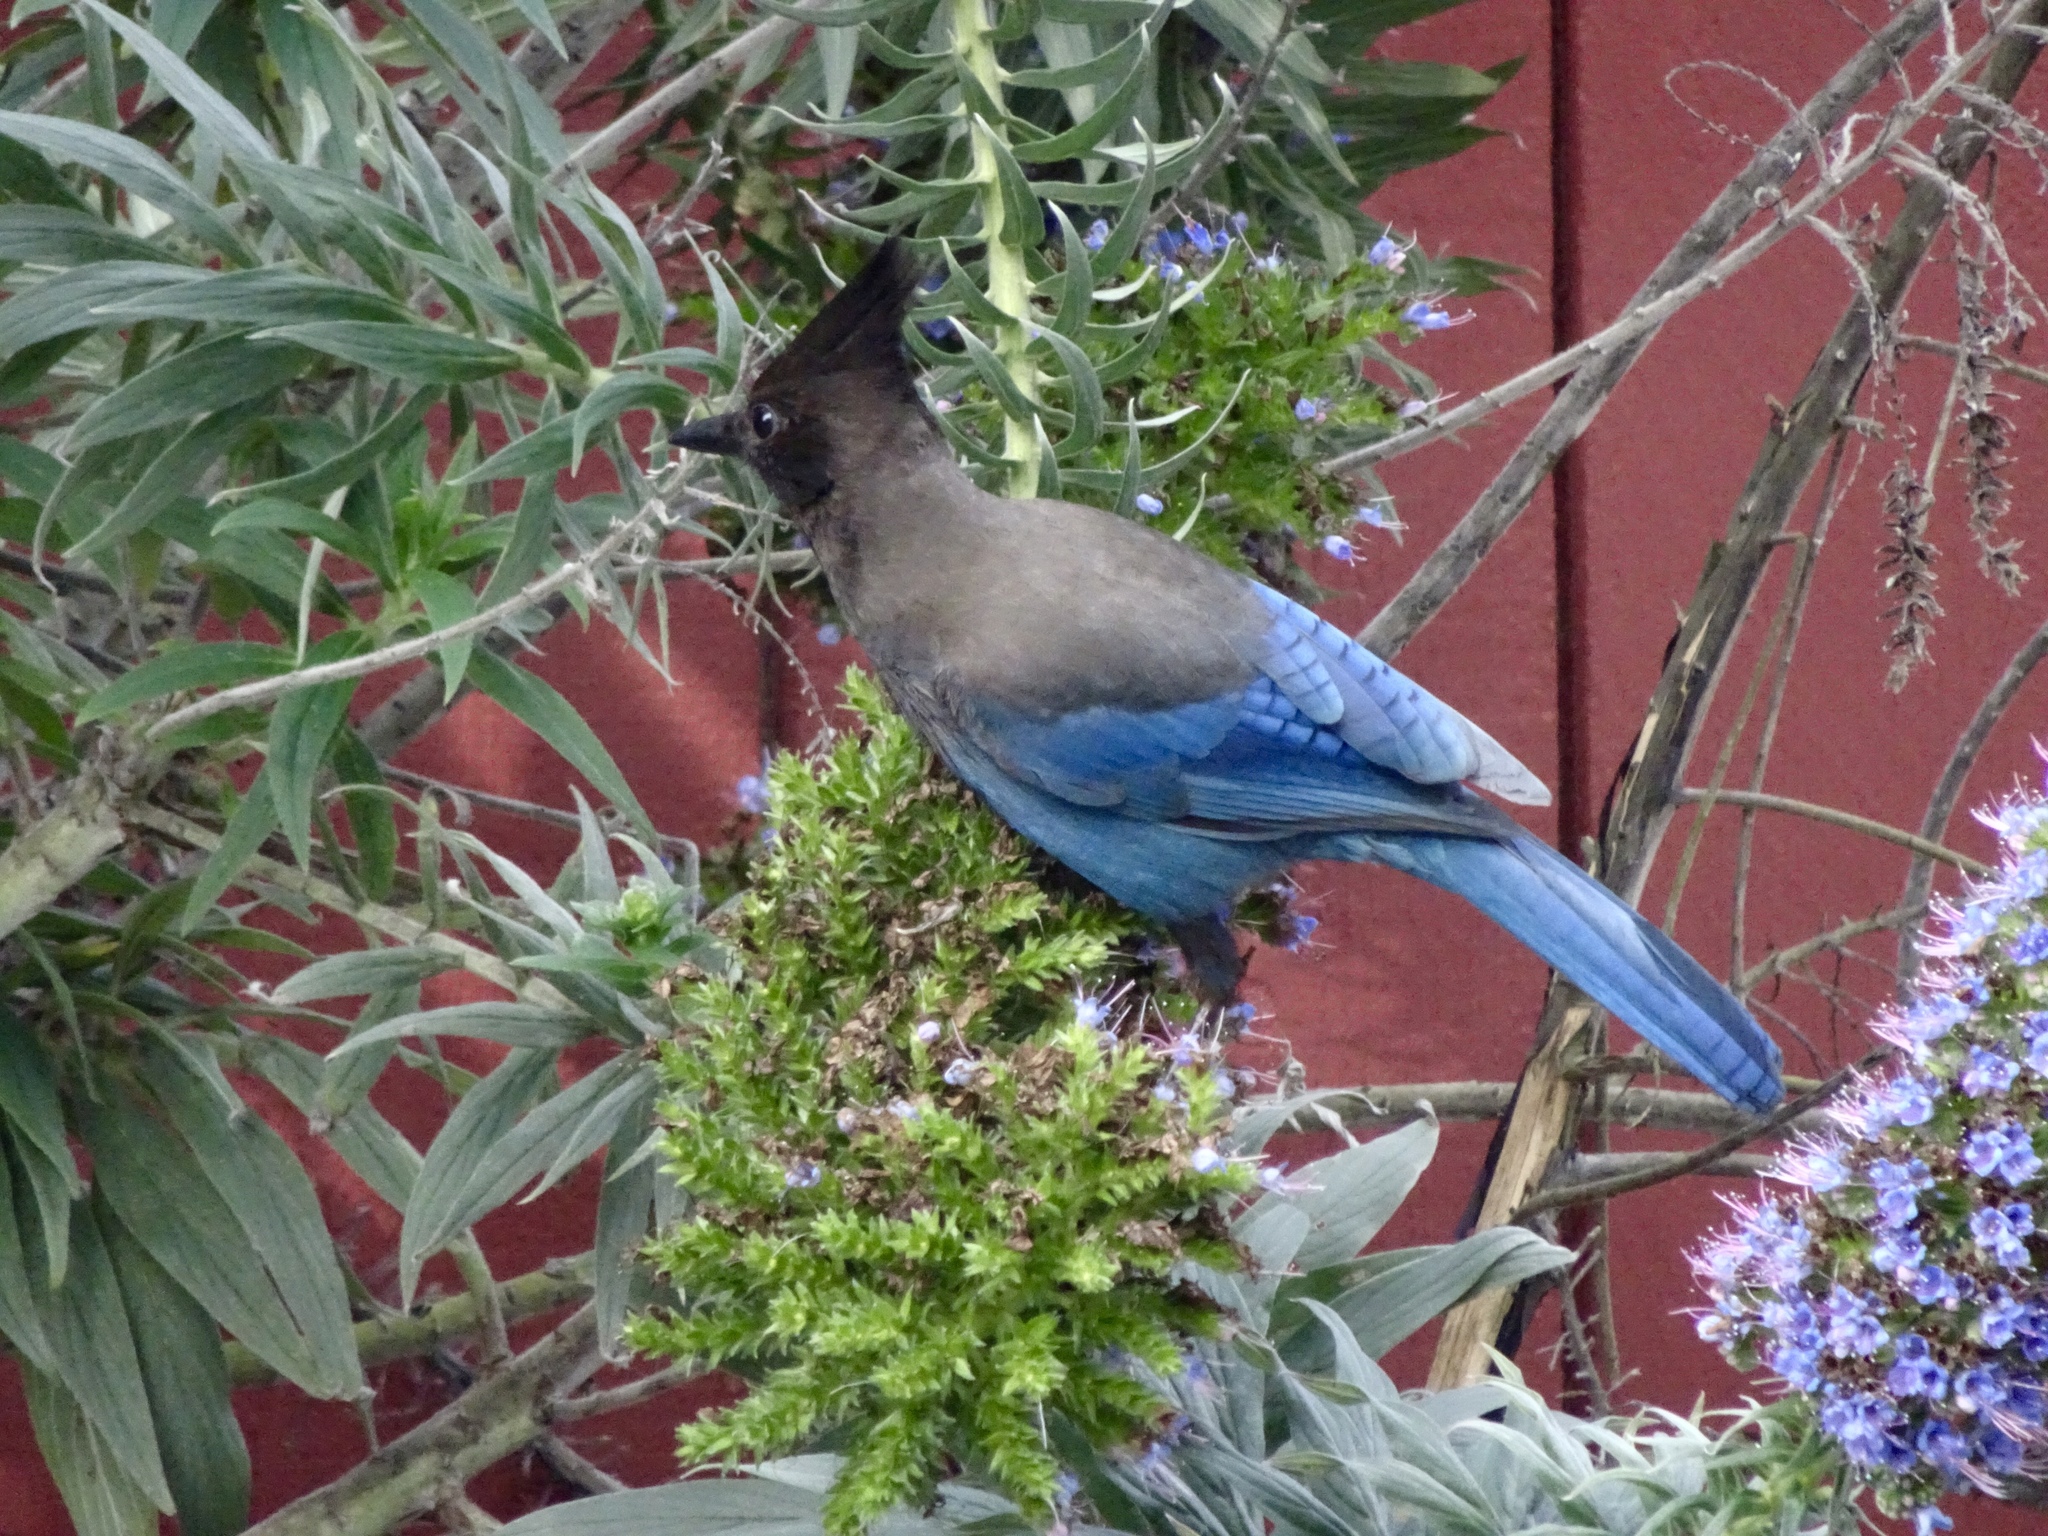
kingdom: Animalia
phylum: Chordata
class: Aves
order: Passeriformes
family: Corvidae
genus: Cyanocitta
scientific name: Cyanocitta stelleri
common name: Steller's jay
